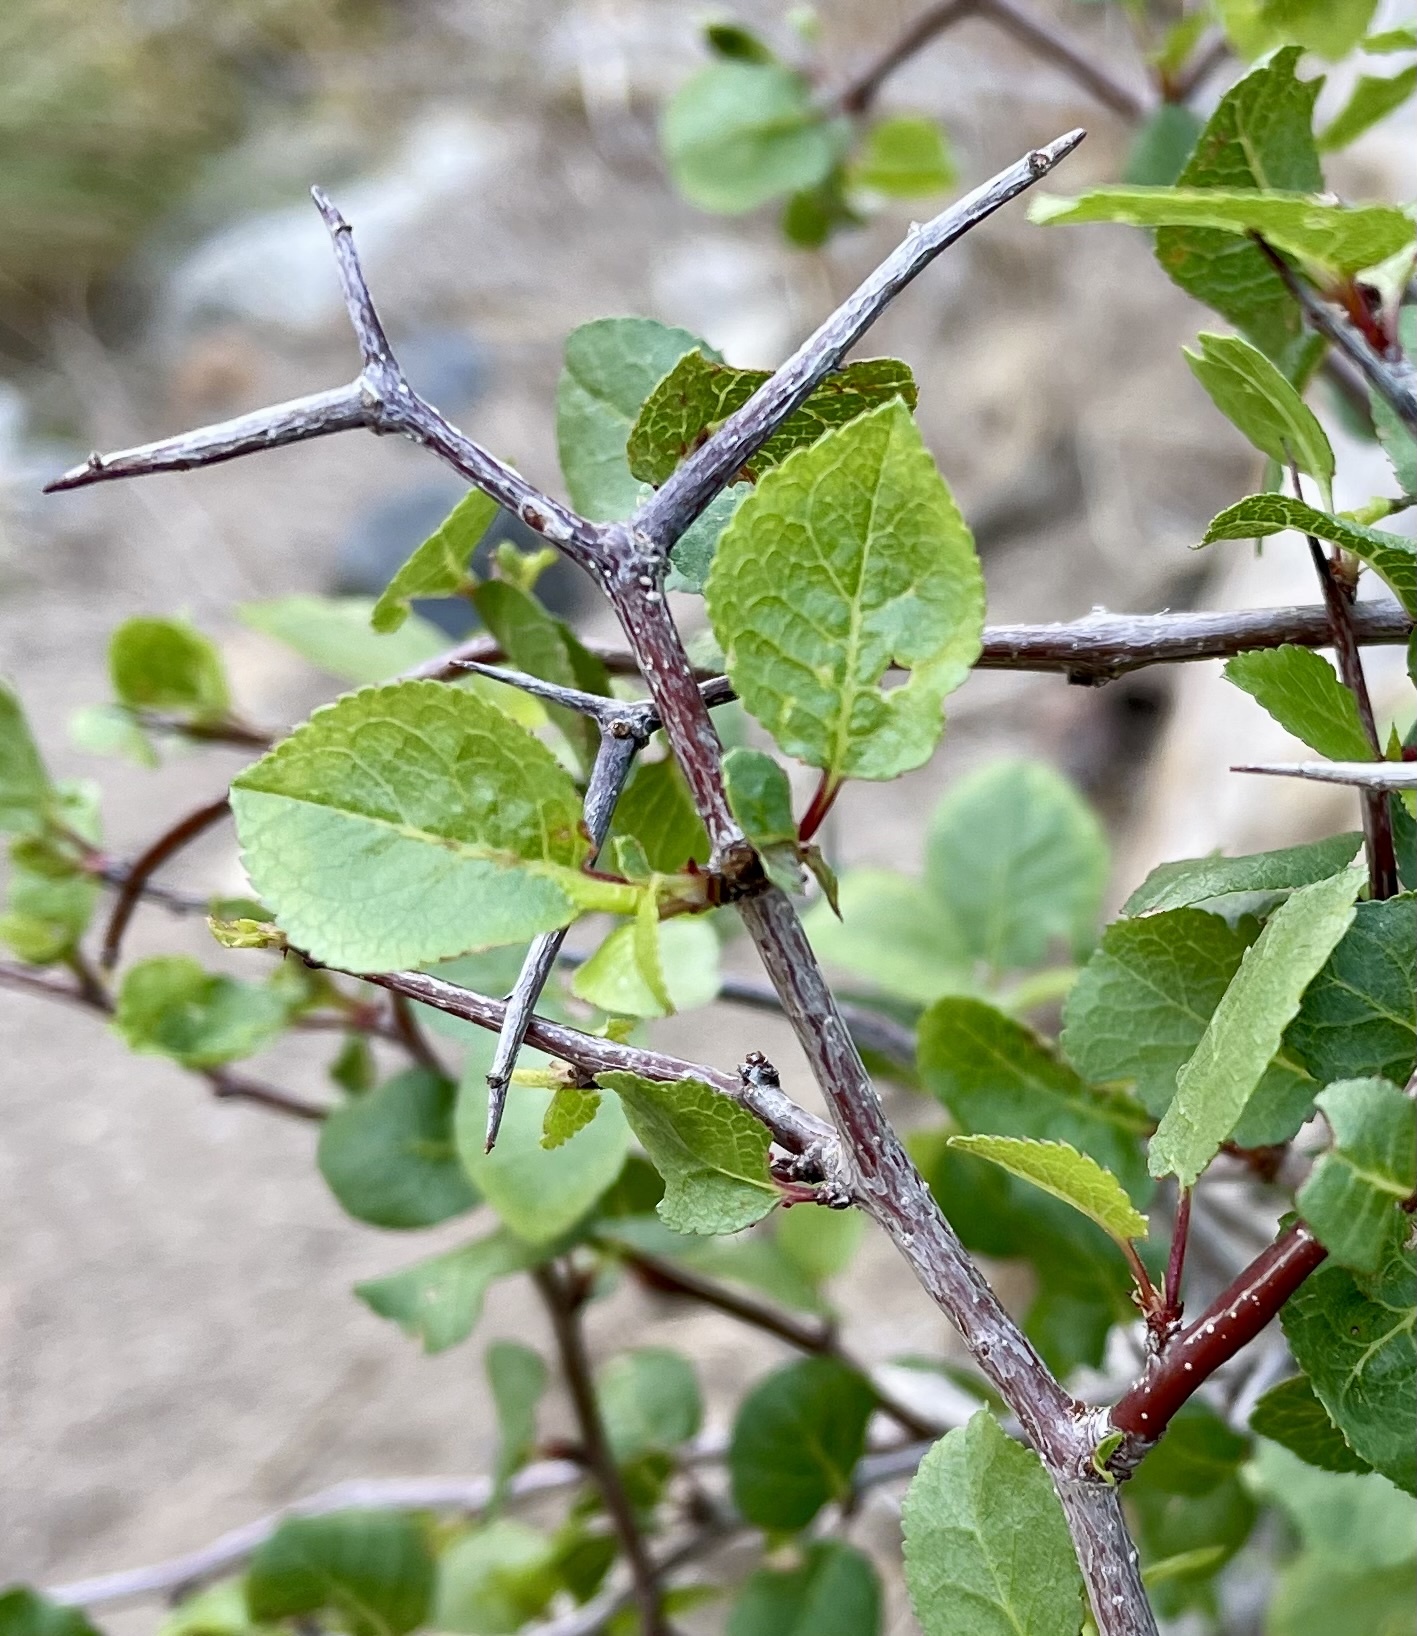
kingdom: Plantae
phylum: Tracheophyta
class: Magnoliopsida
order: Rosales
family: Rosaceae
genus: Prunus
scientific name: Prunus fremontii
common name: Desert apricot
